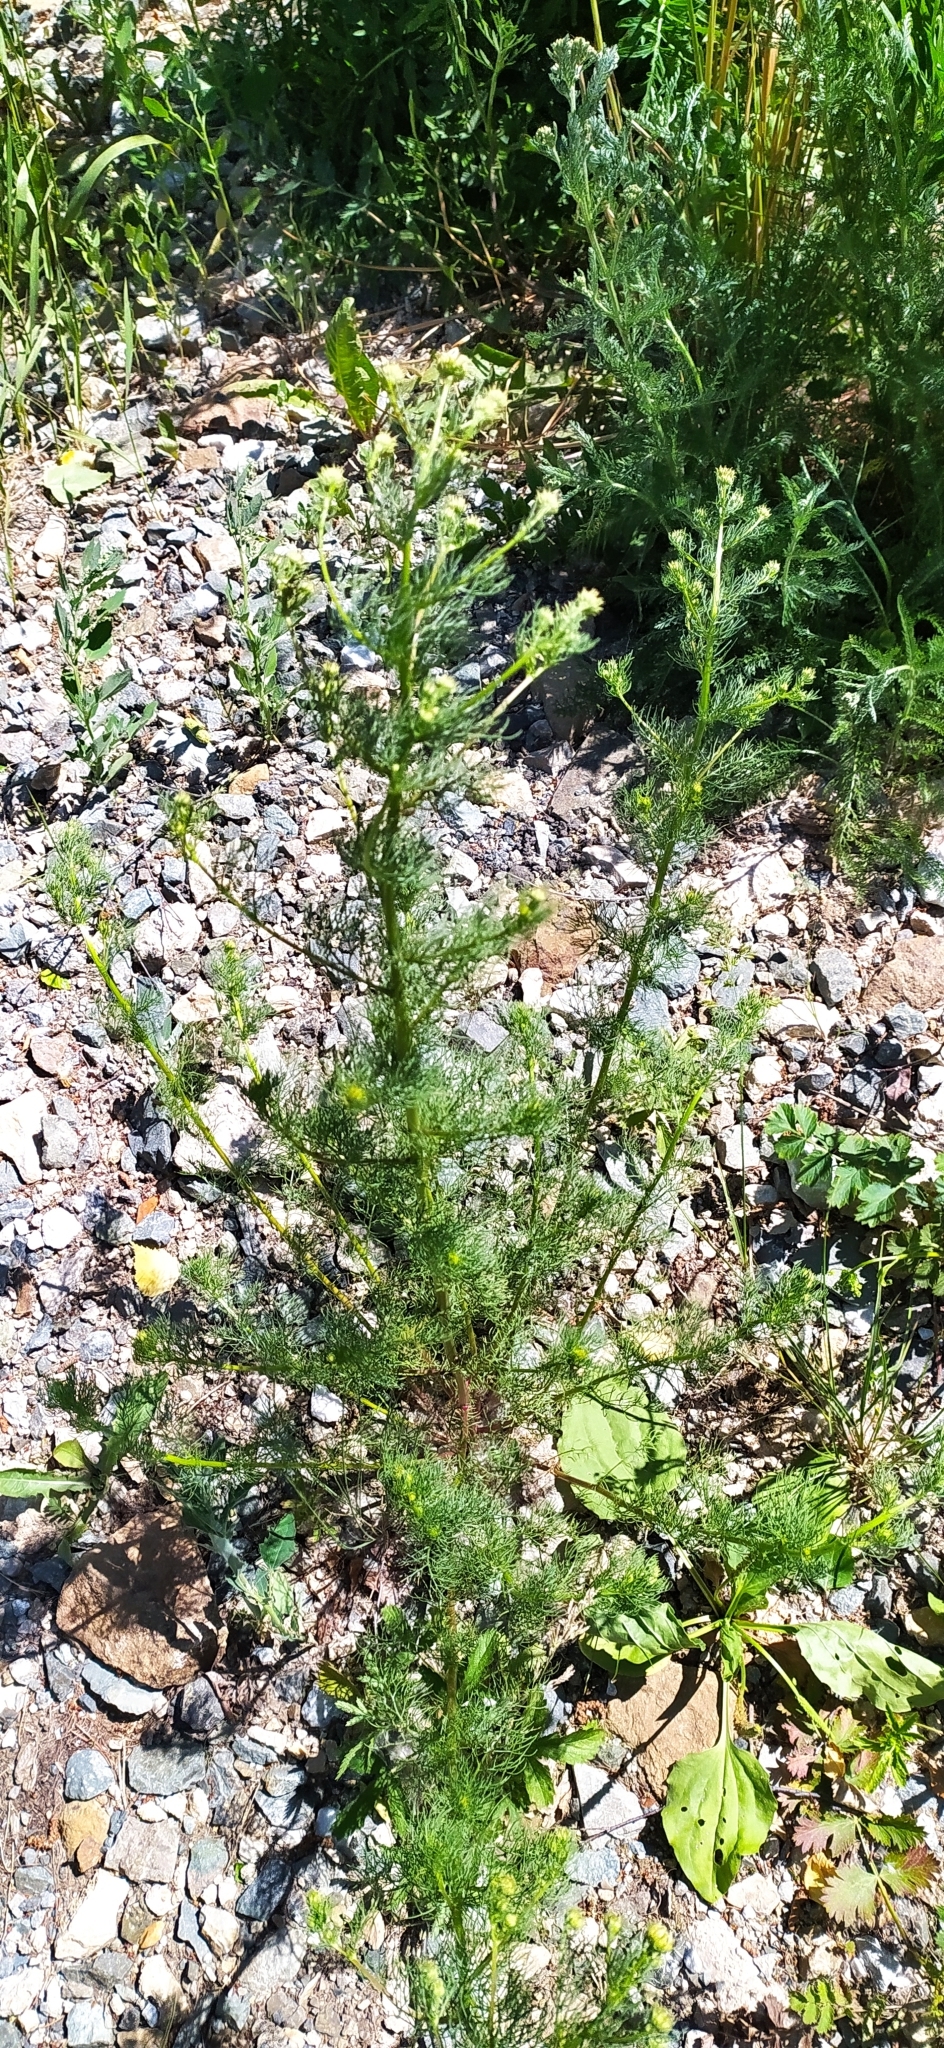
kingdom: Plantae
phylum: Tracheophyta
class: Magnoliopsida
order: Asterales
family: Asteraceae
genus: Tripleurospermum
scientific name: Tripleurospermum inodorum
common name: Scentless mayweed
